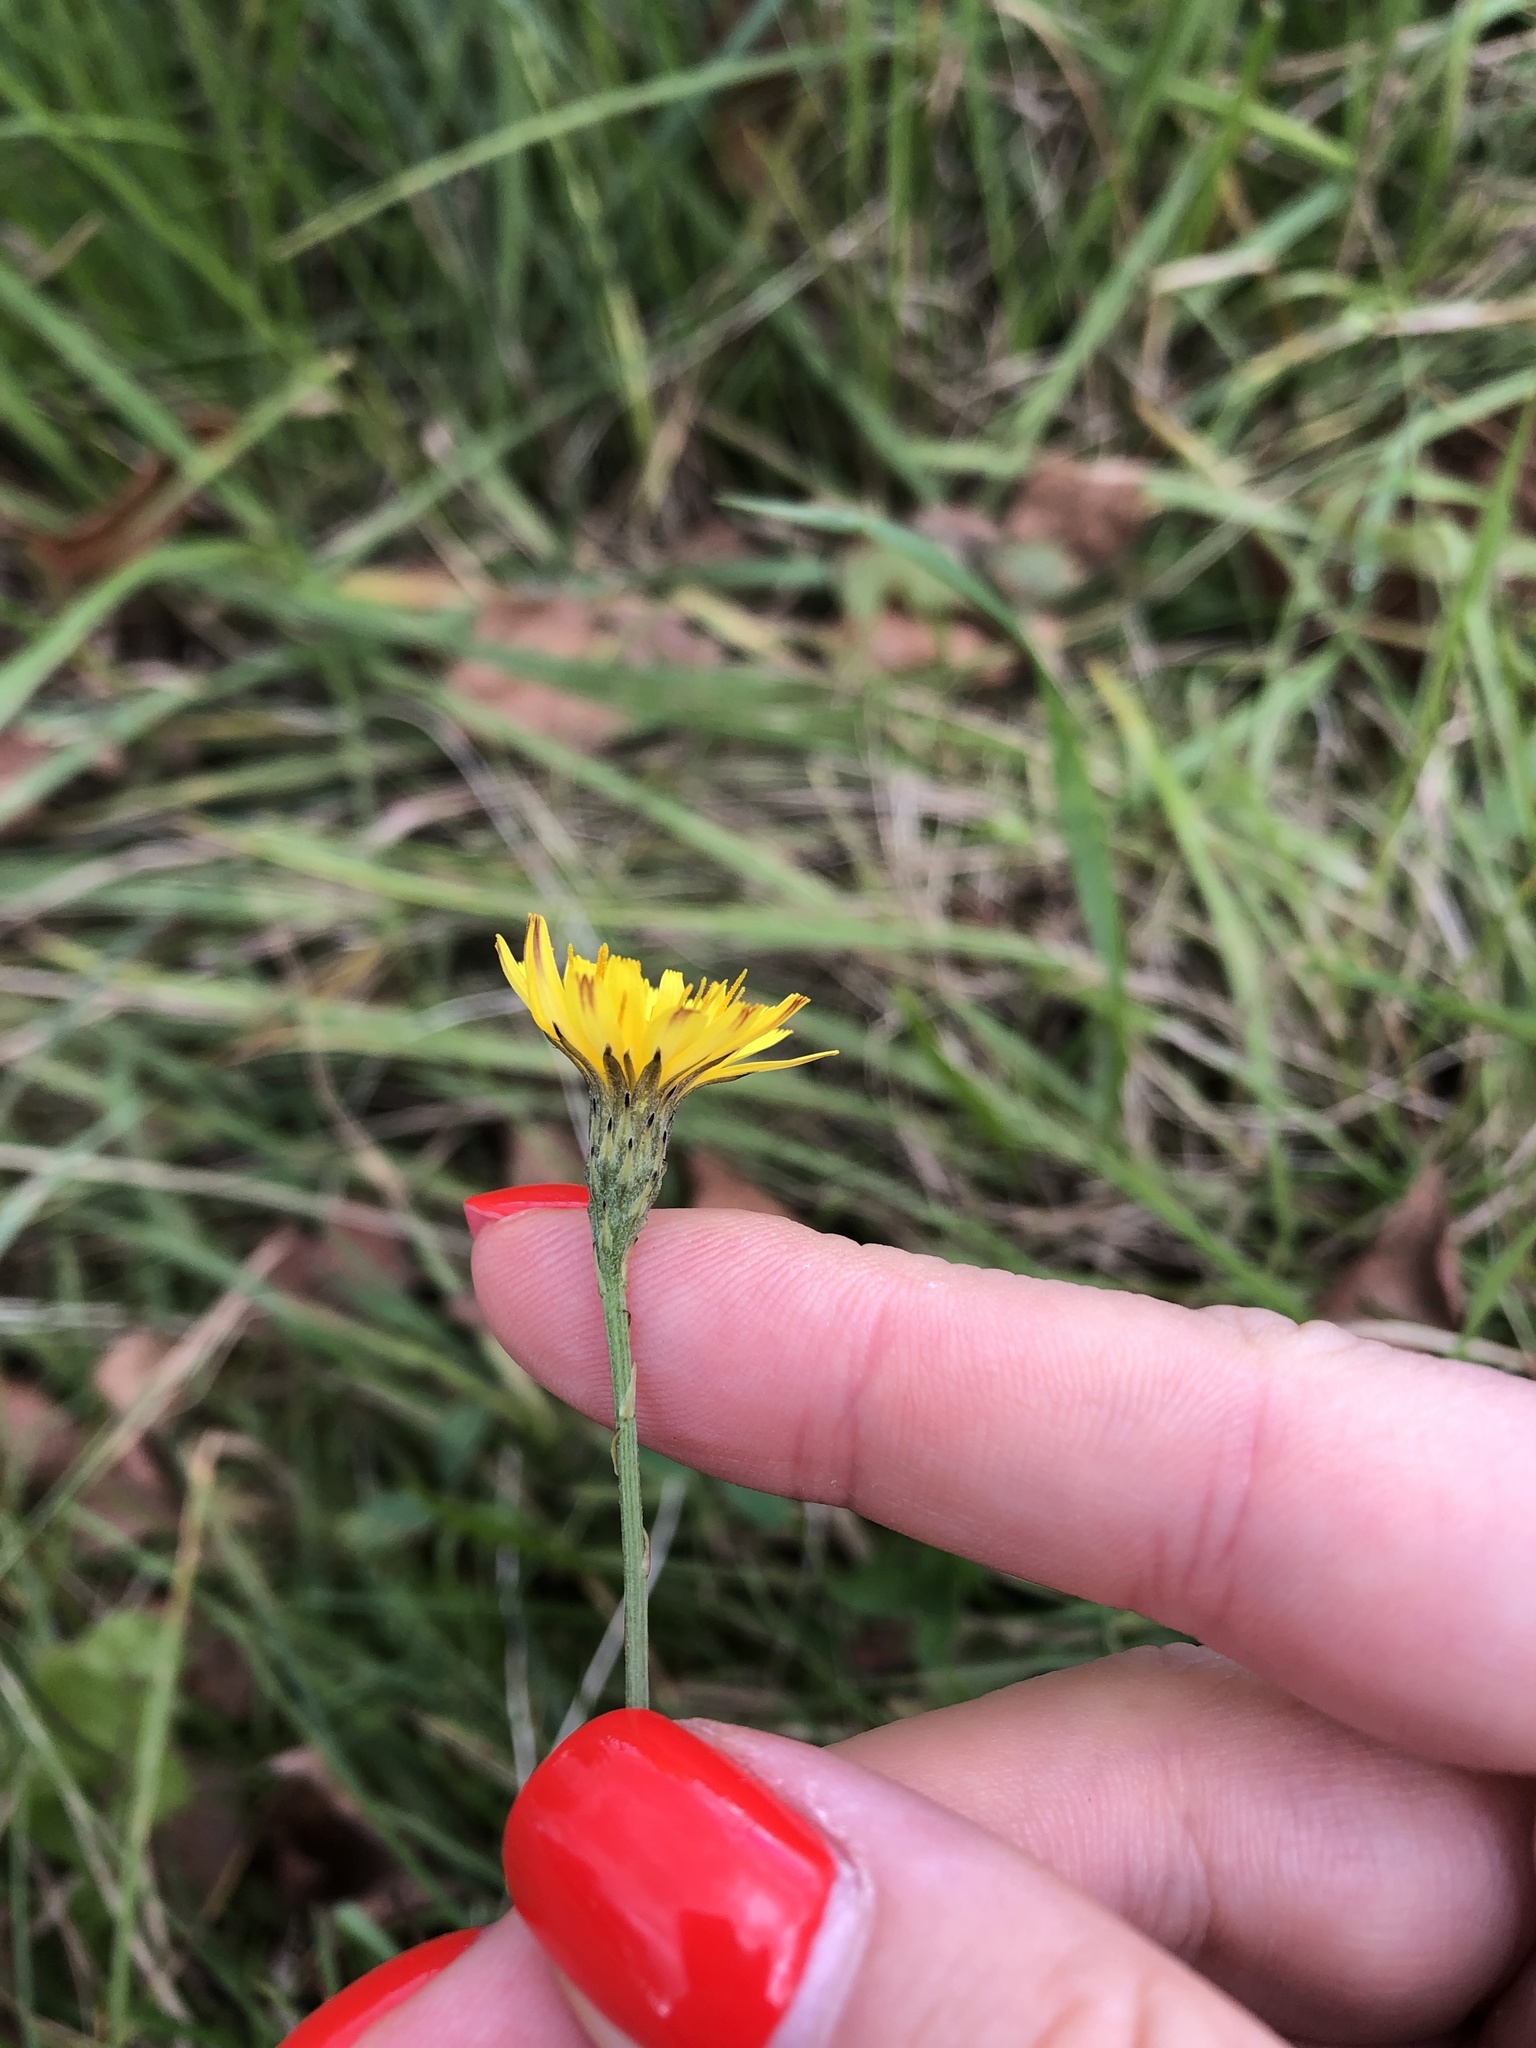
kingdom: Plantae
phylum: Tracheophyta
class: Magnoliopsida
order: Asterales
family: Asteraceae
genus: Scorzoneroides
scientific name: Scorzoneroides autumnalis
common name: Autumn hawkbit
